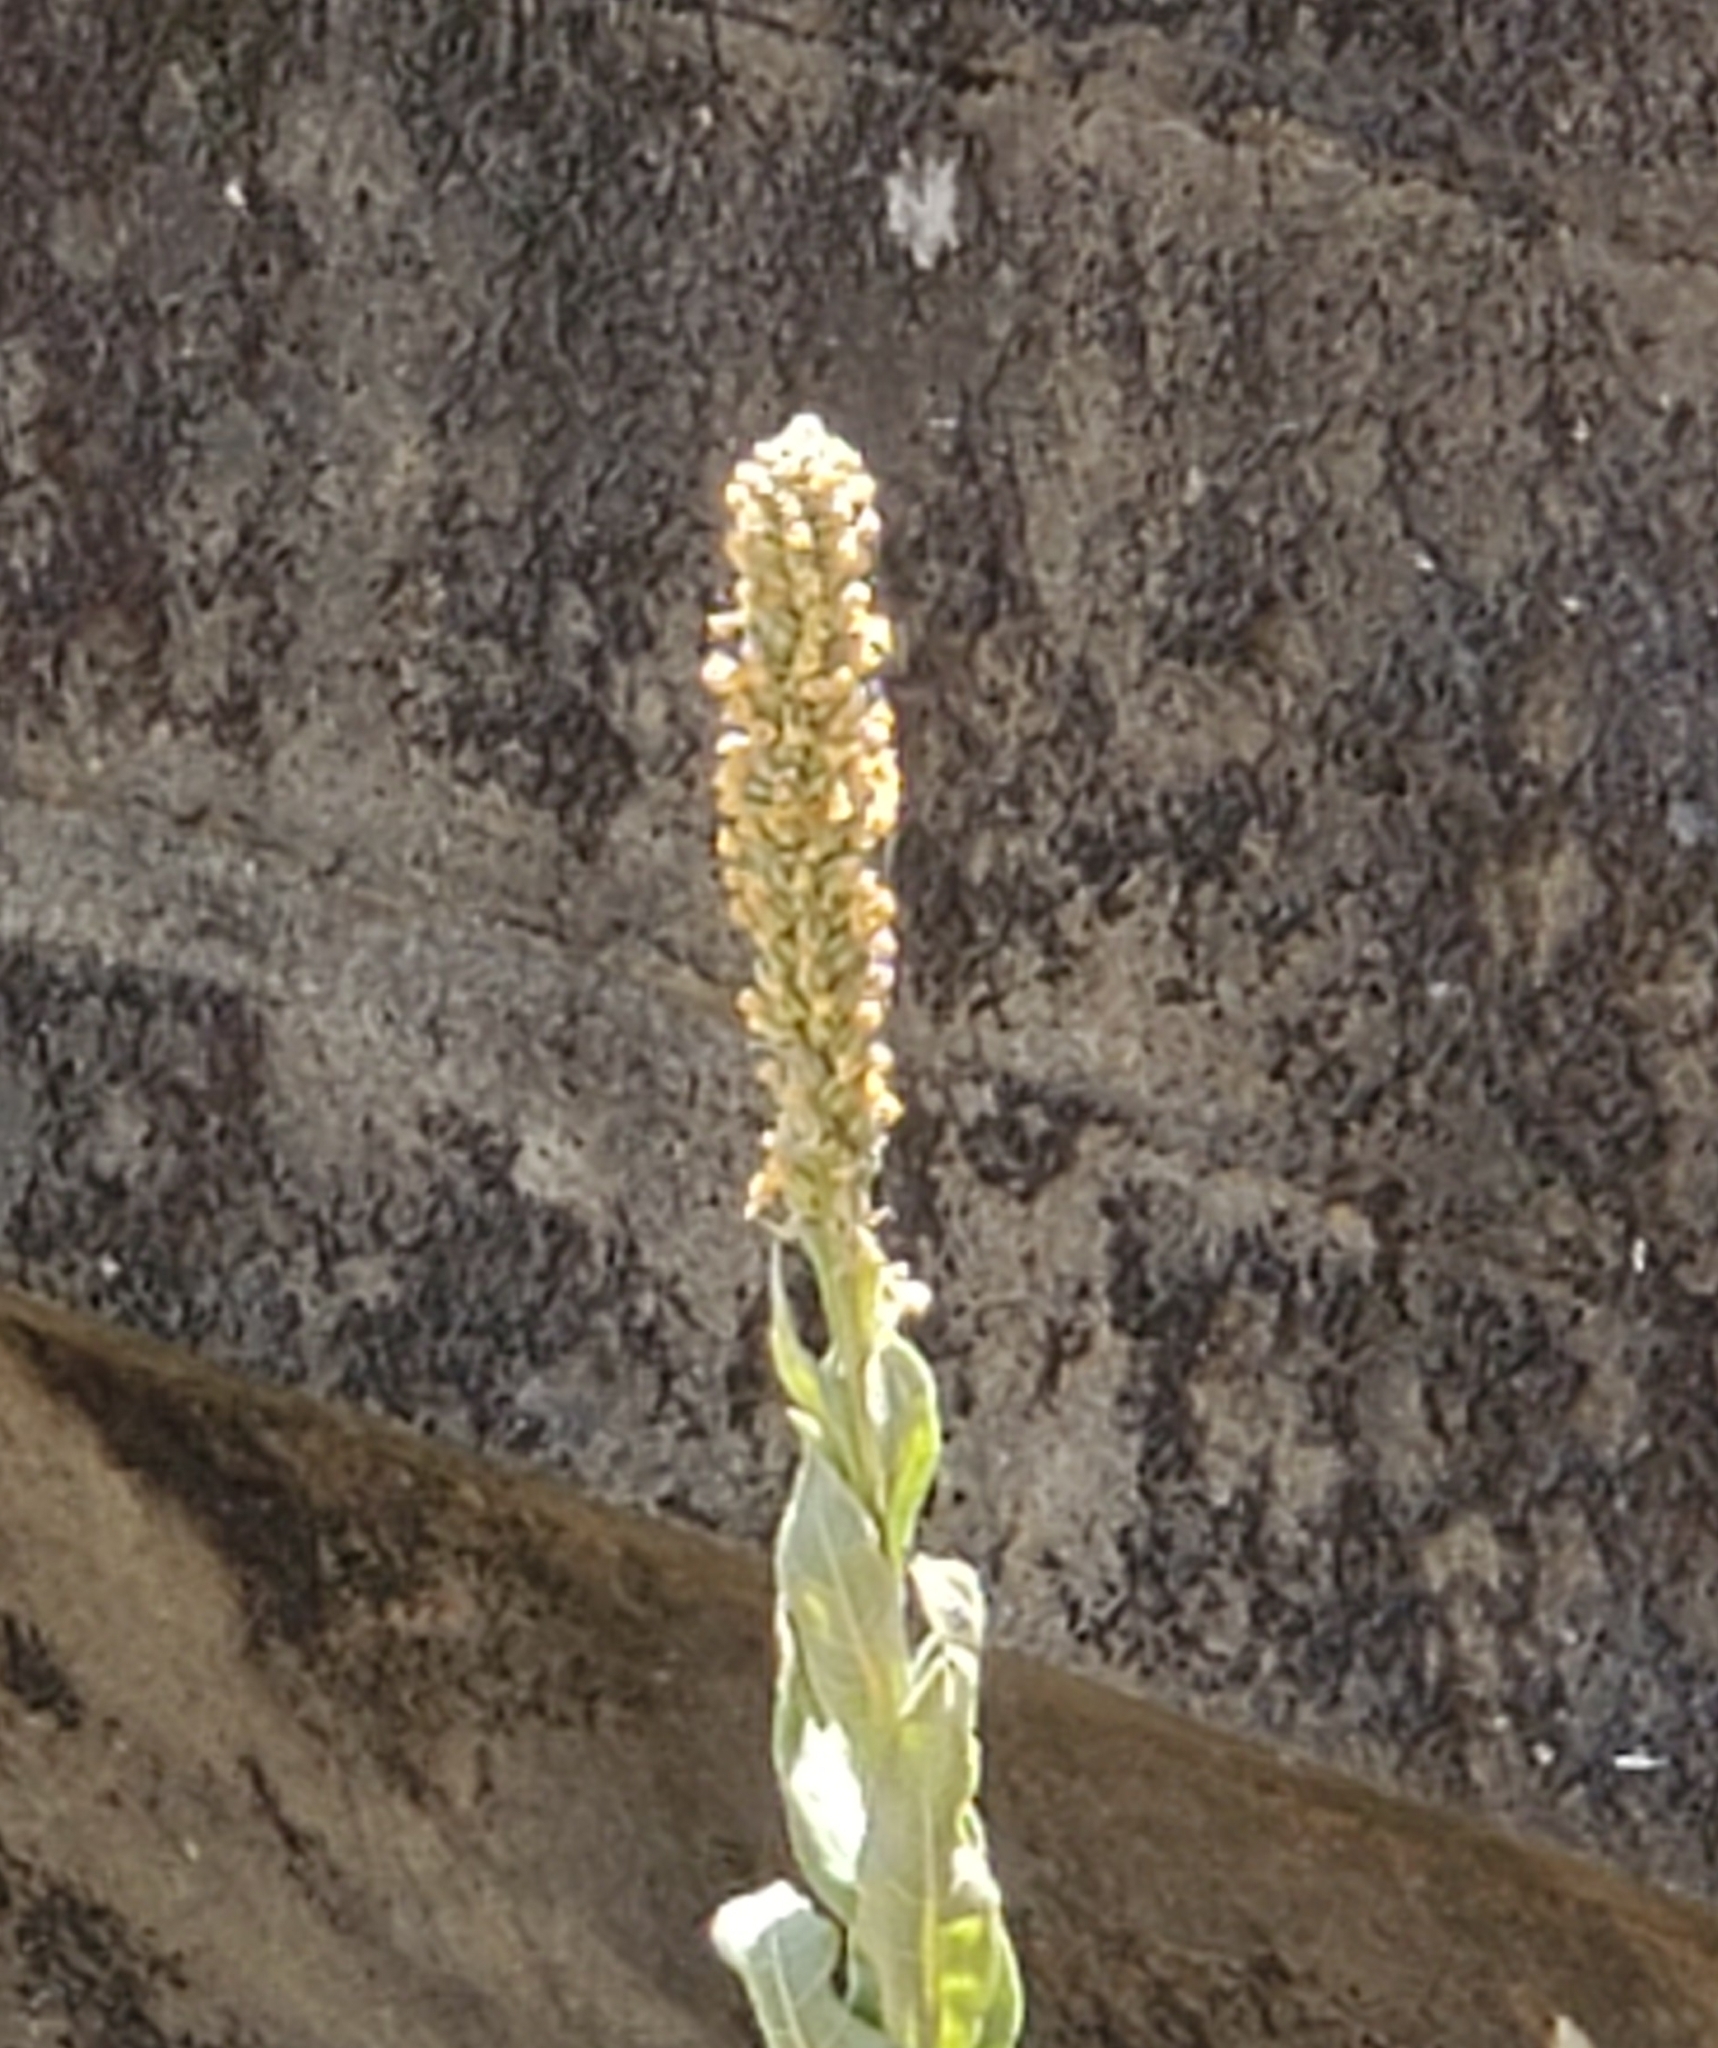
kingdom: Plantae
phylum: Tracheophyta
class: Magnoliopsida
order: Lamiales
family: Scrophulariaceae
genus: Verbascum
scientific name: Verbascum thapsus
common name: Common mullein
